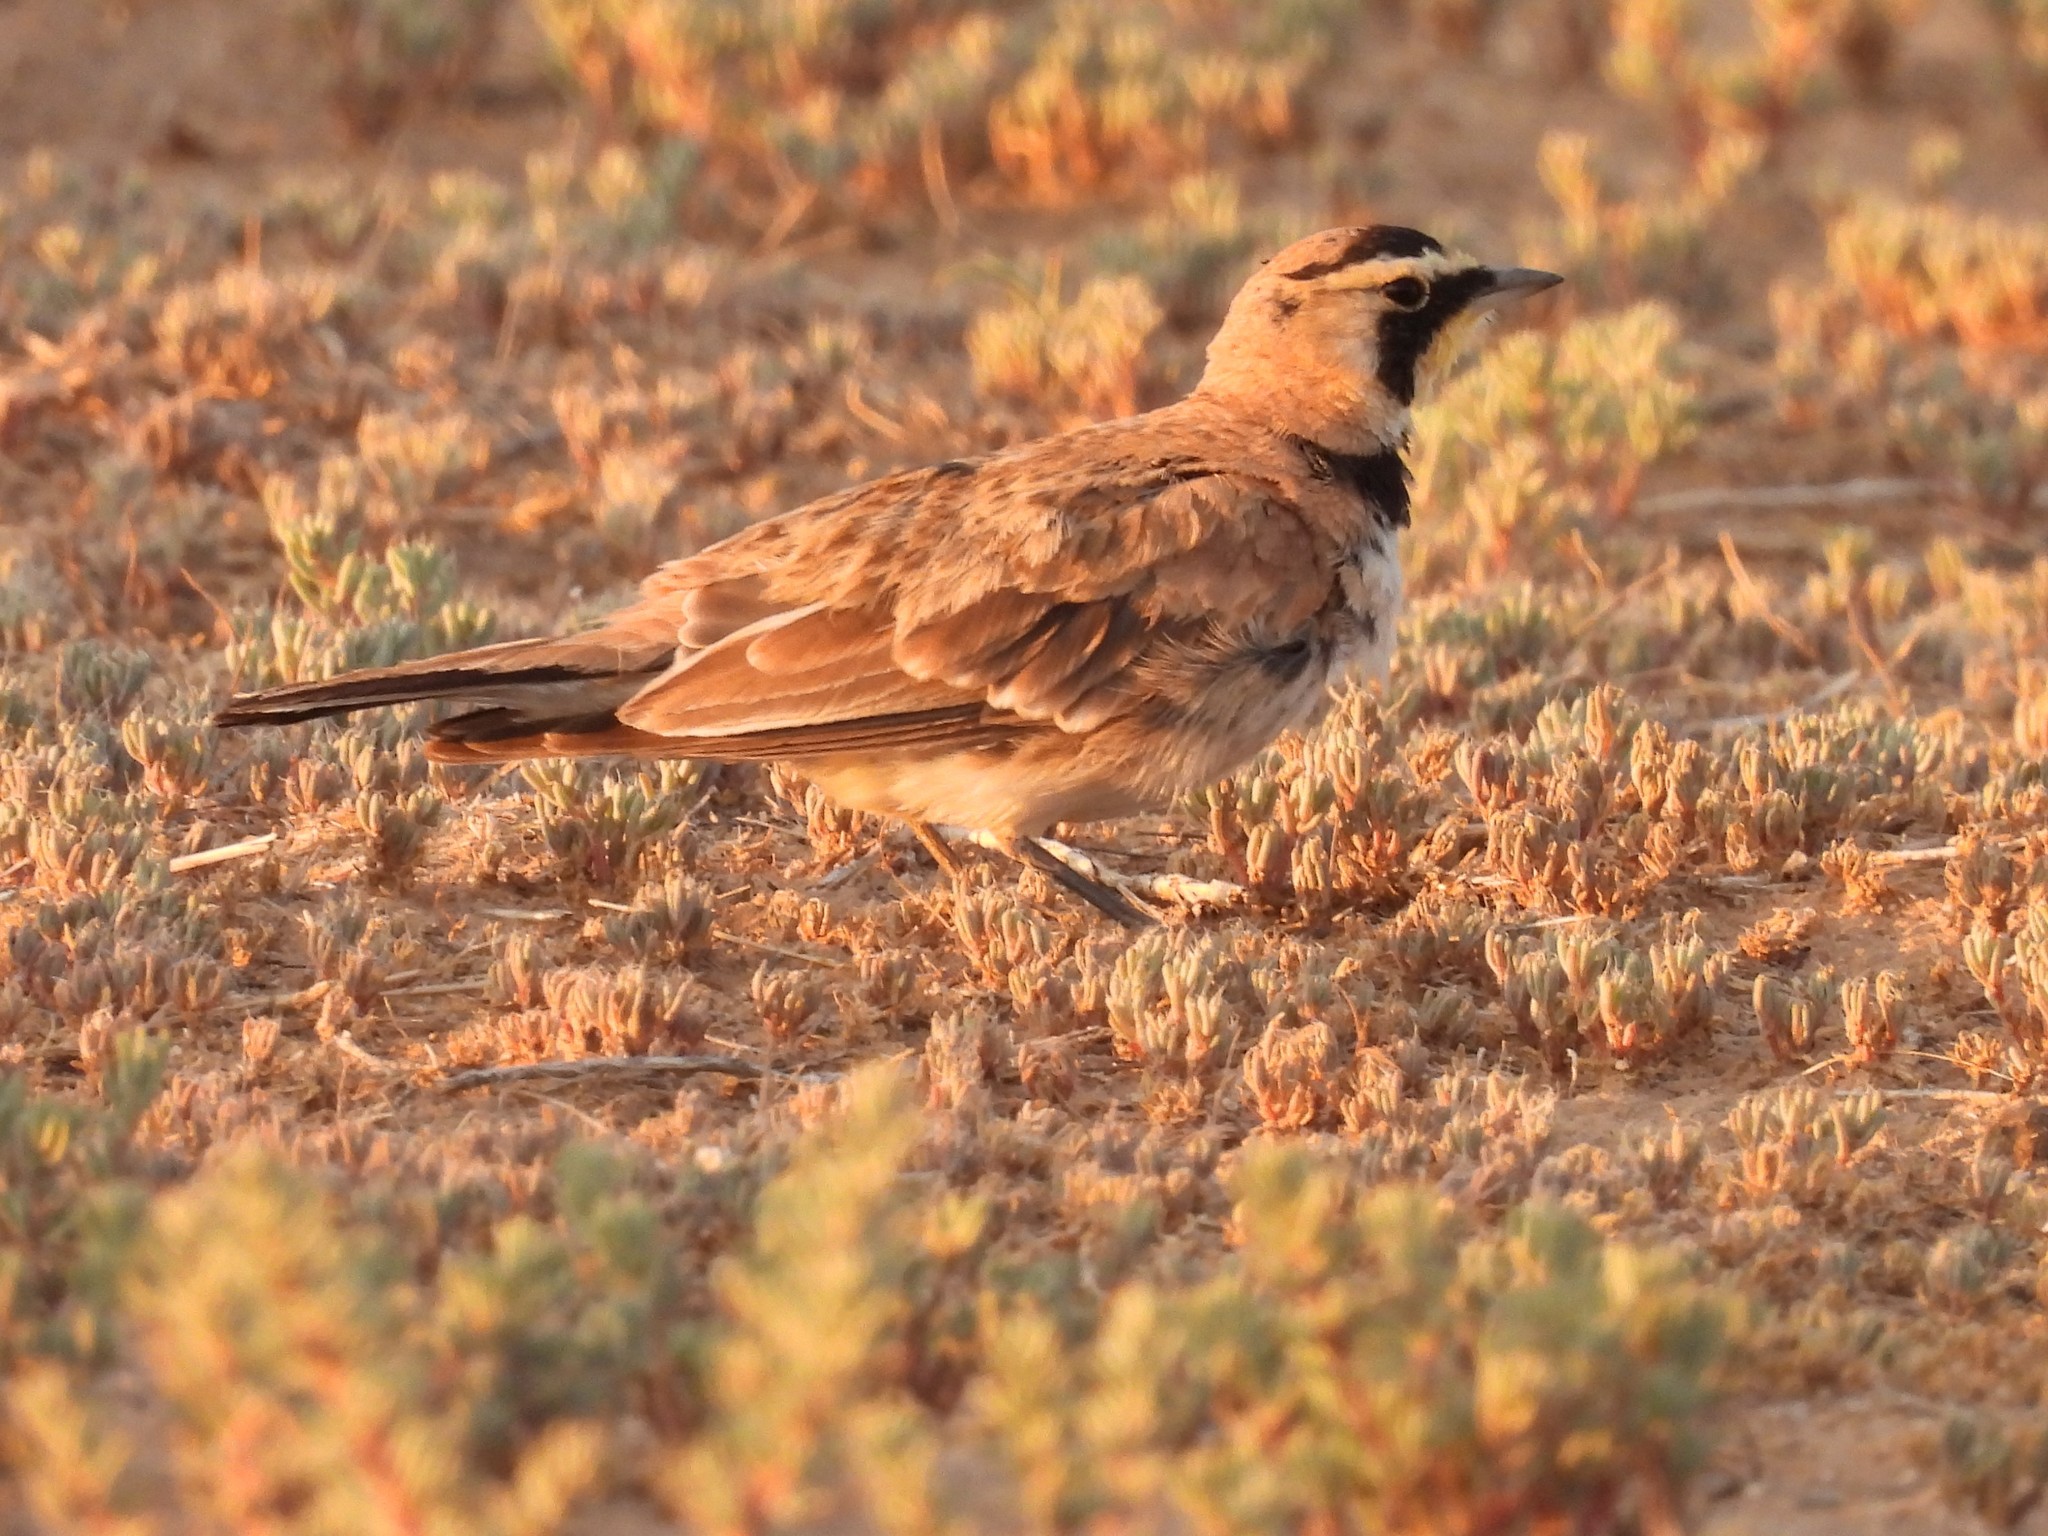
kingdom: Animalia
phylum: Chordata
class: Aves
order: Passeriformes
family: Alaudidae
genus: Eremophila
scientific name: Eremophila alpestris
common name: Horned lark
